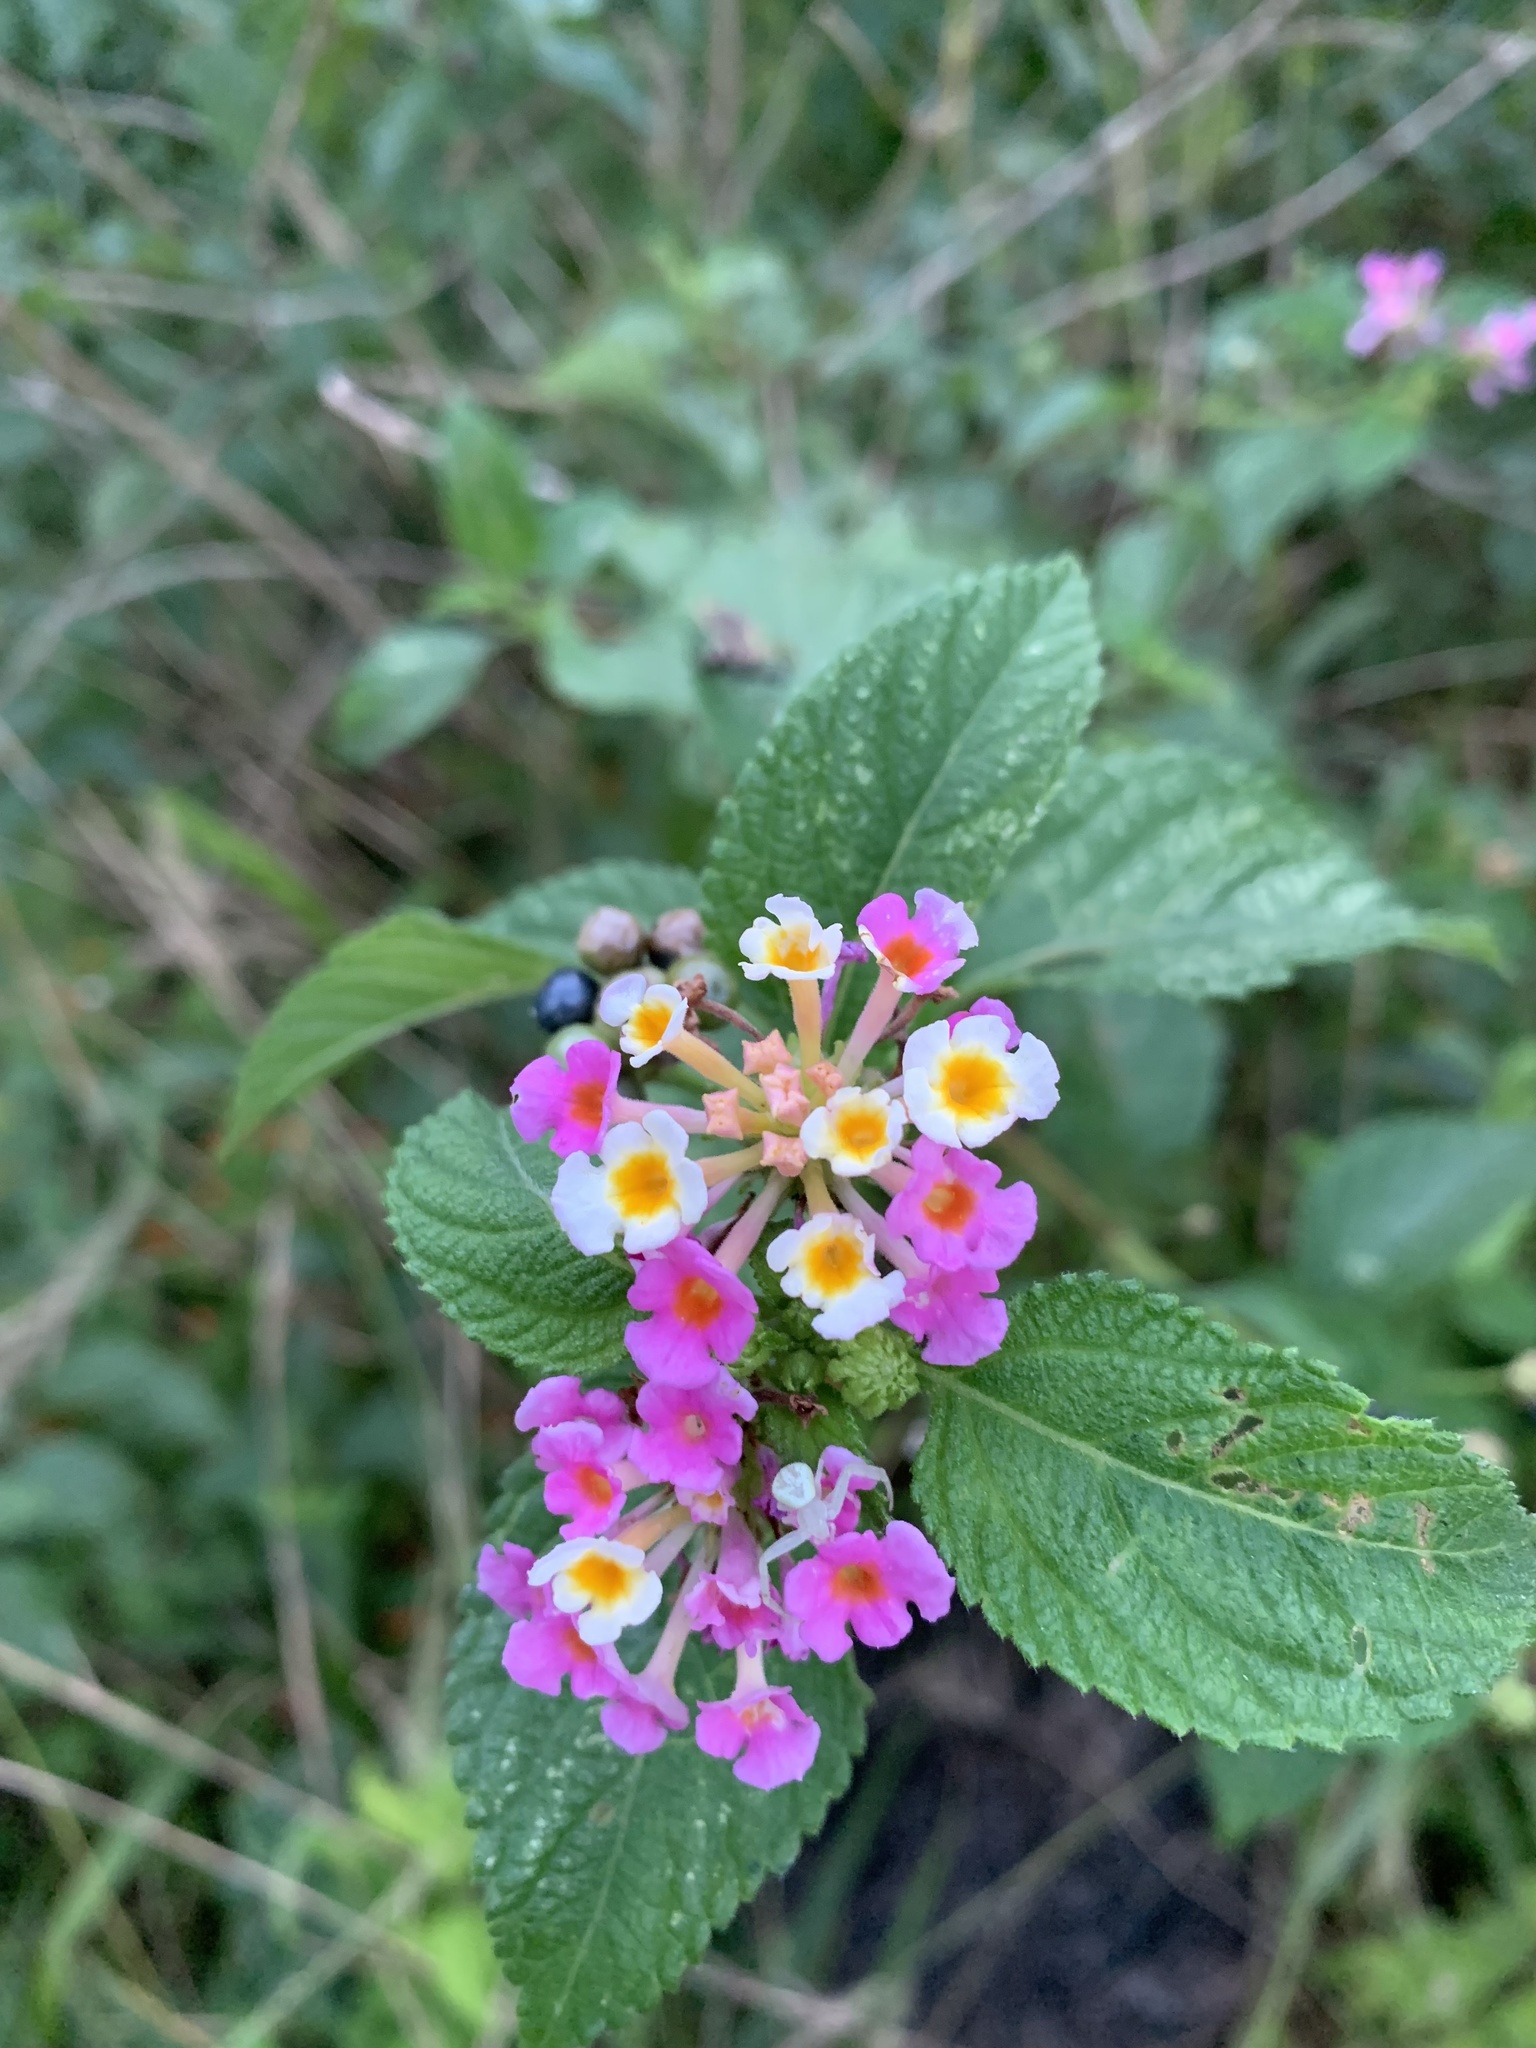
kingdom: Plantae
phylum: Tracheophyta
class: Magnoliopsida
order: Lamiales
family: Verbenaceae
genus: Lantana
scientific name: Lantana strigocamara
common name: Lantana
